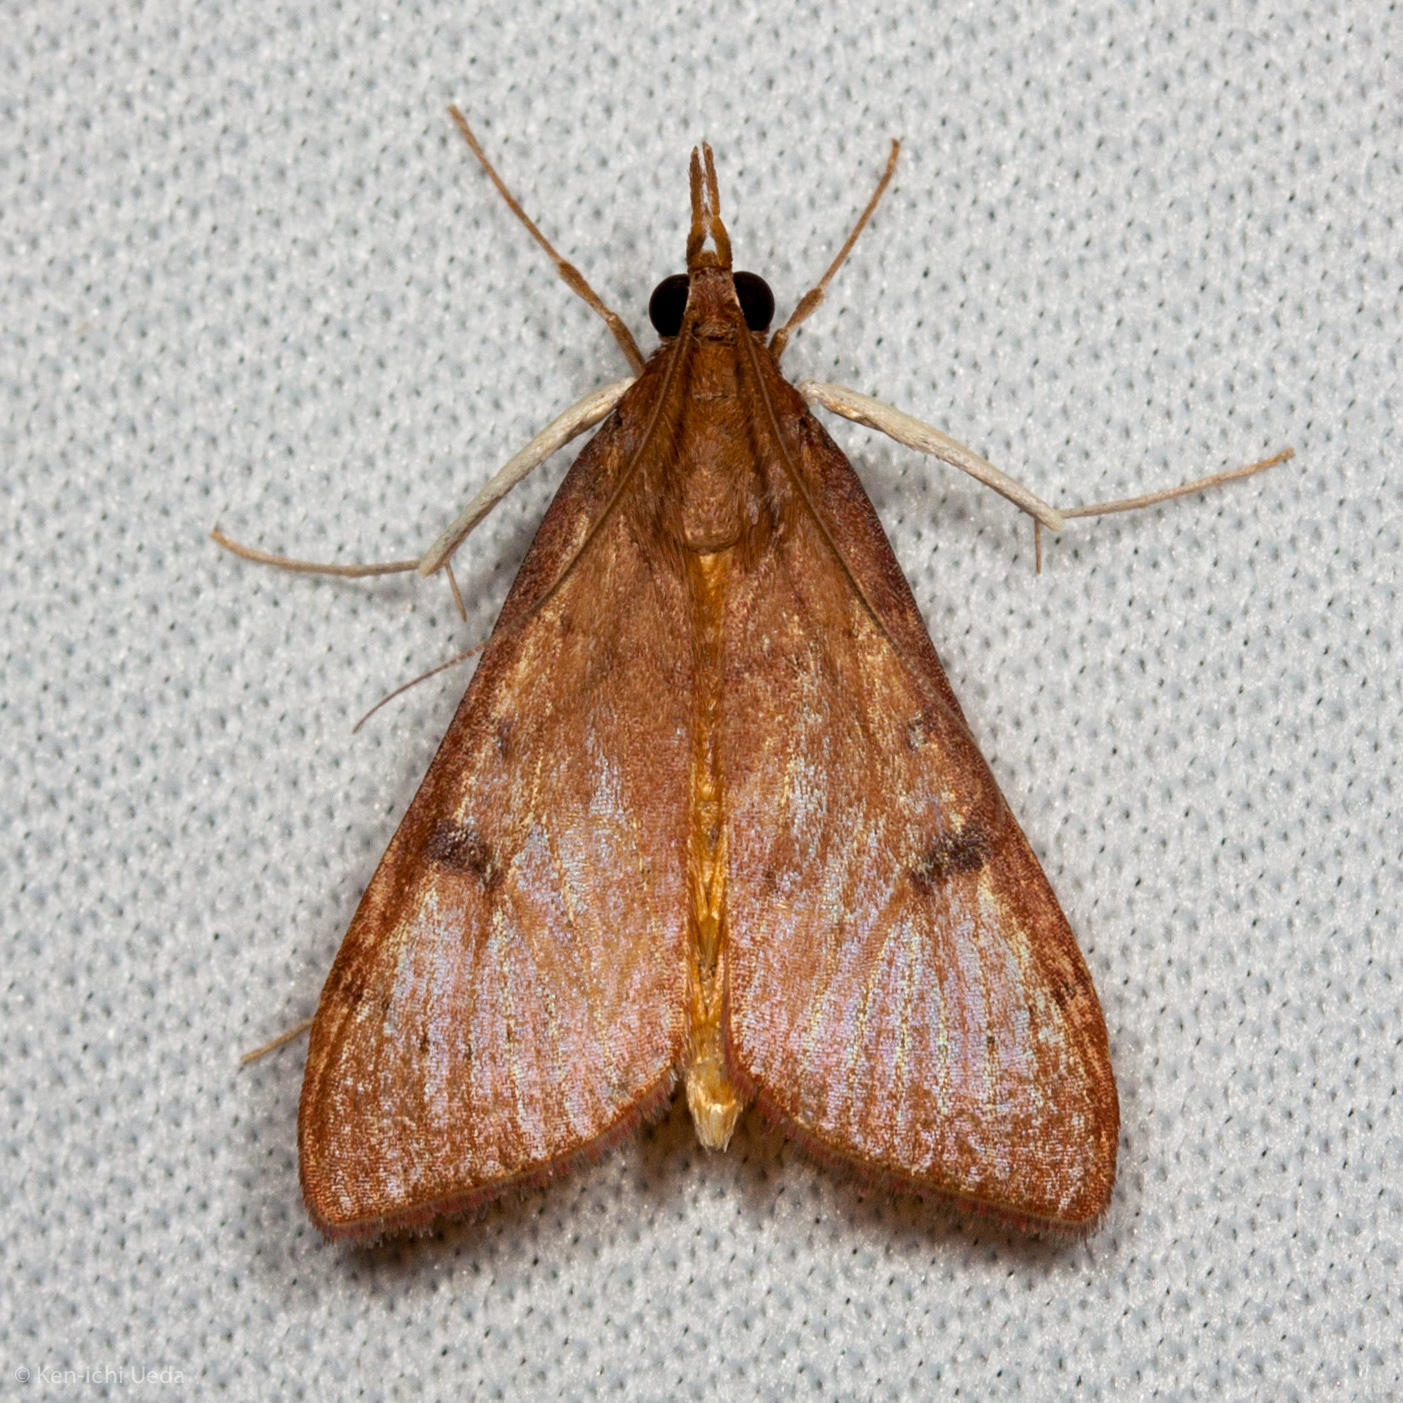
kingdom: Animalia
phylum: Arthropoda
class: Insecta
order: Lepidoptera
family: Crambidae
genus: Uresiphita
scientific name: Uresiphita reversalis
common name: Genista broom moth
